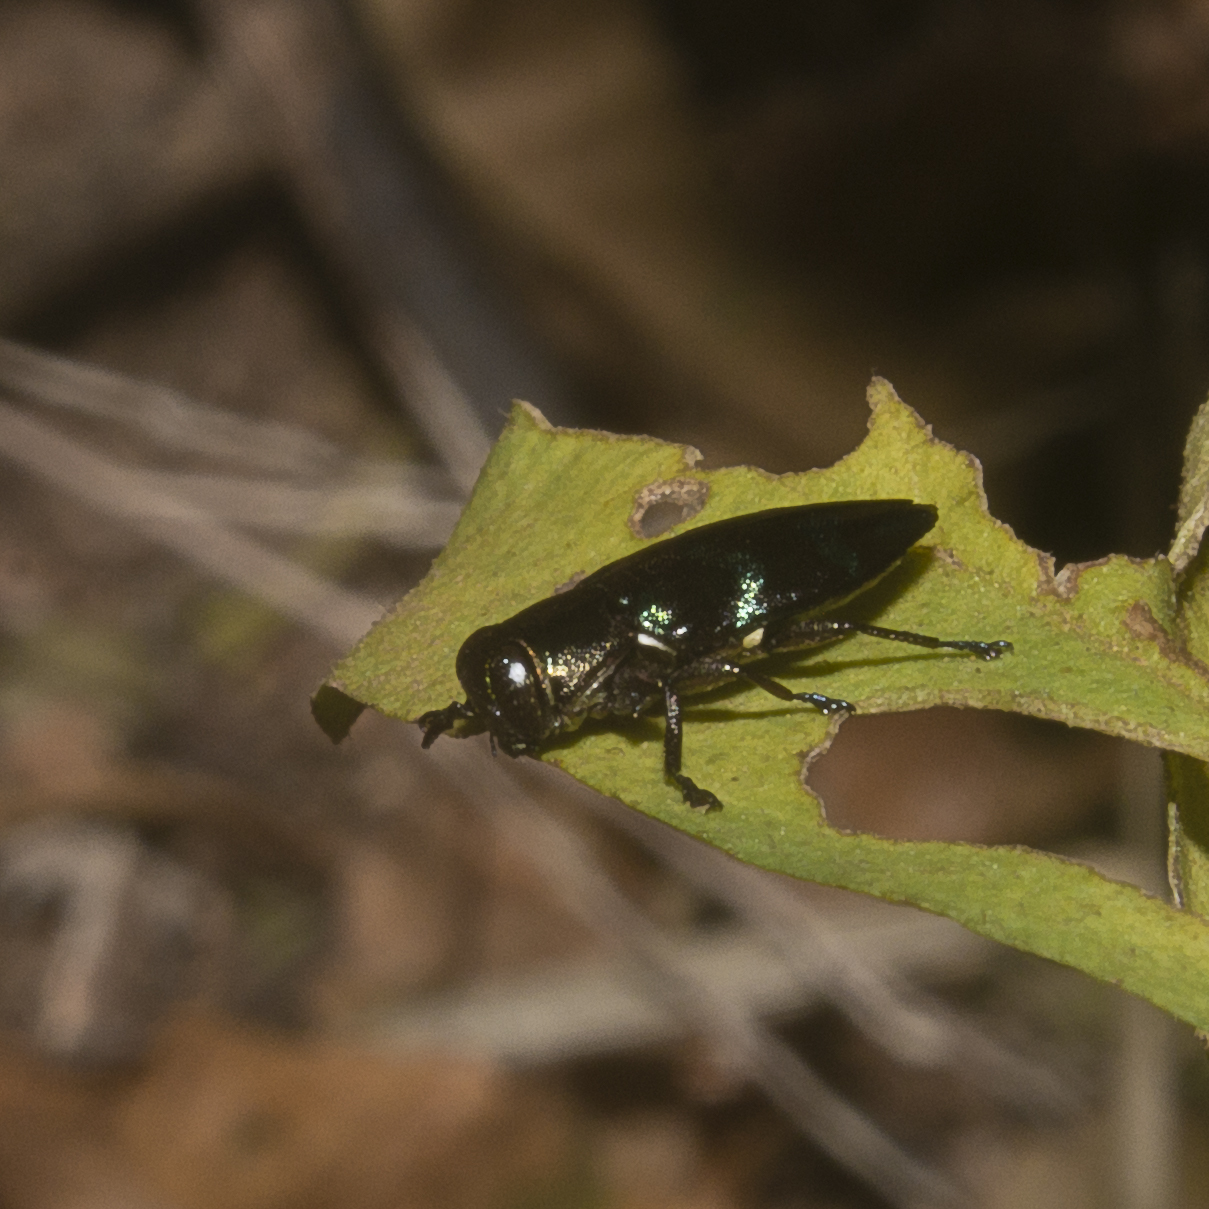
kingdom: Animalia
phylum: Arthropoda
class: Insecta
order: Coleoptera
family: Buprestidae
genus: Chrysobothris
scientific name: Chrysobothris viridiimpressa
